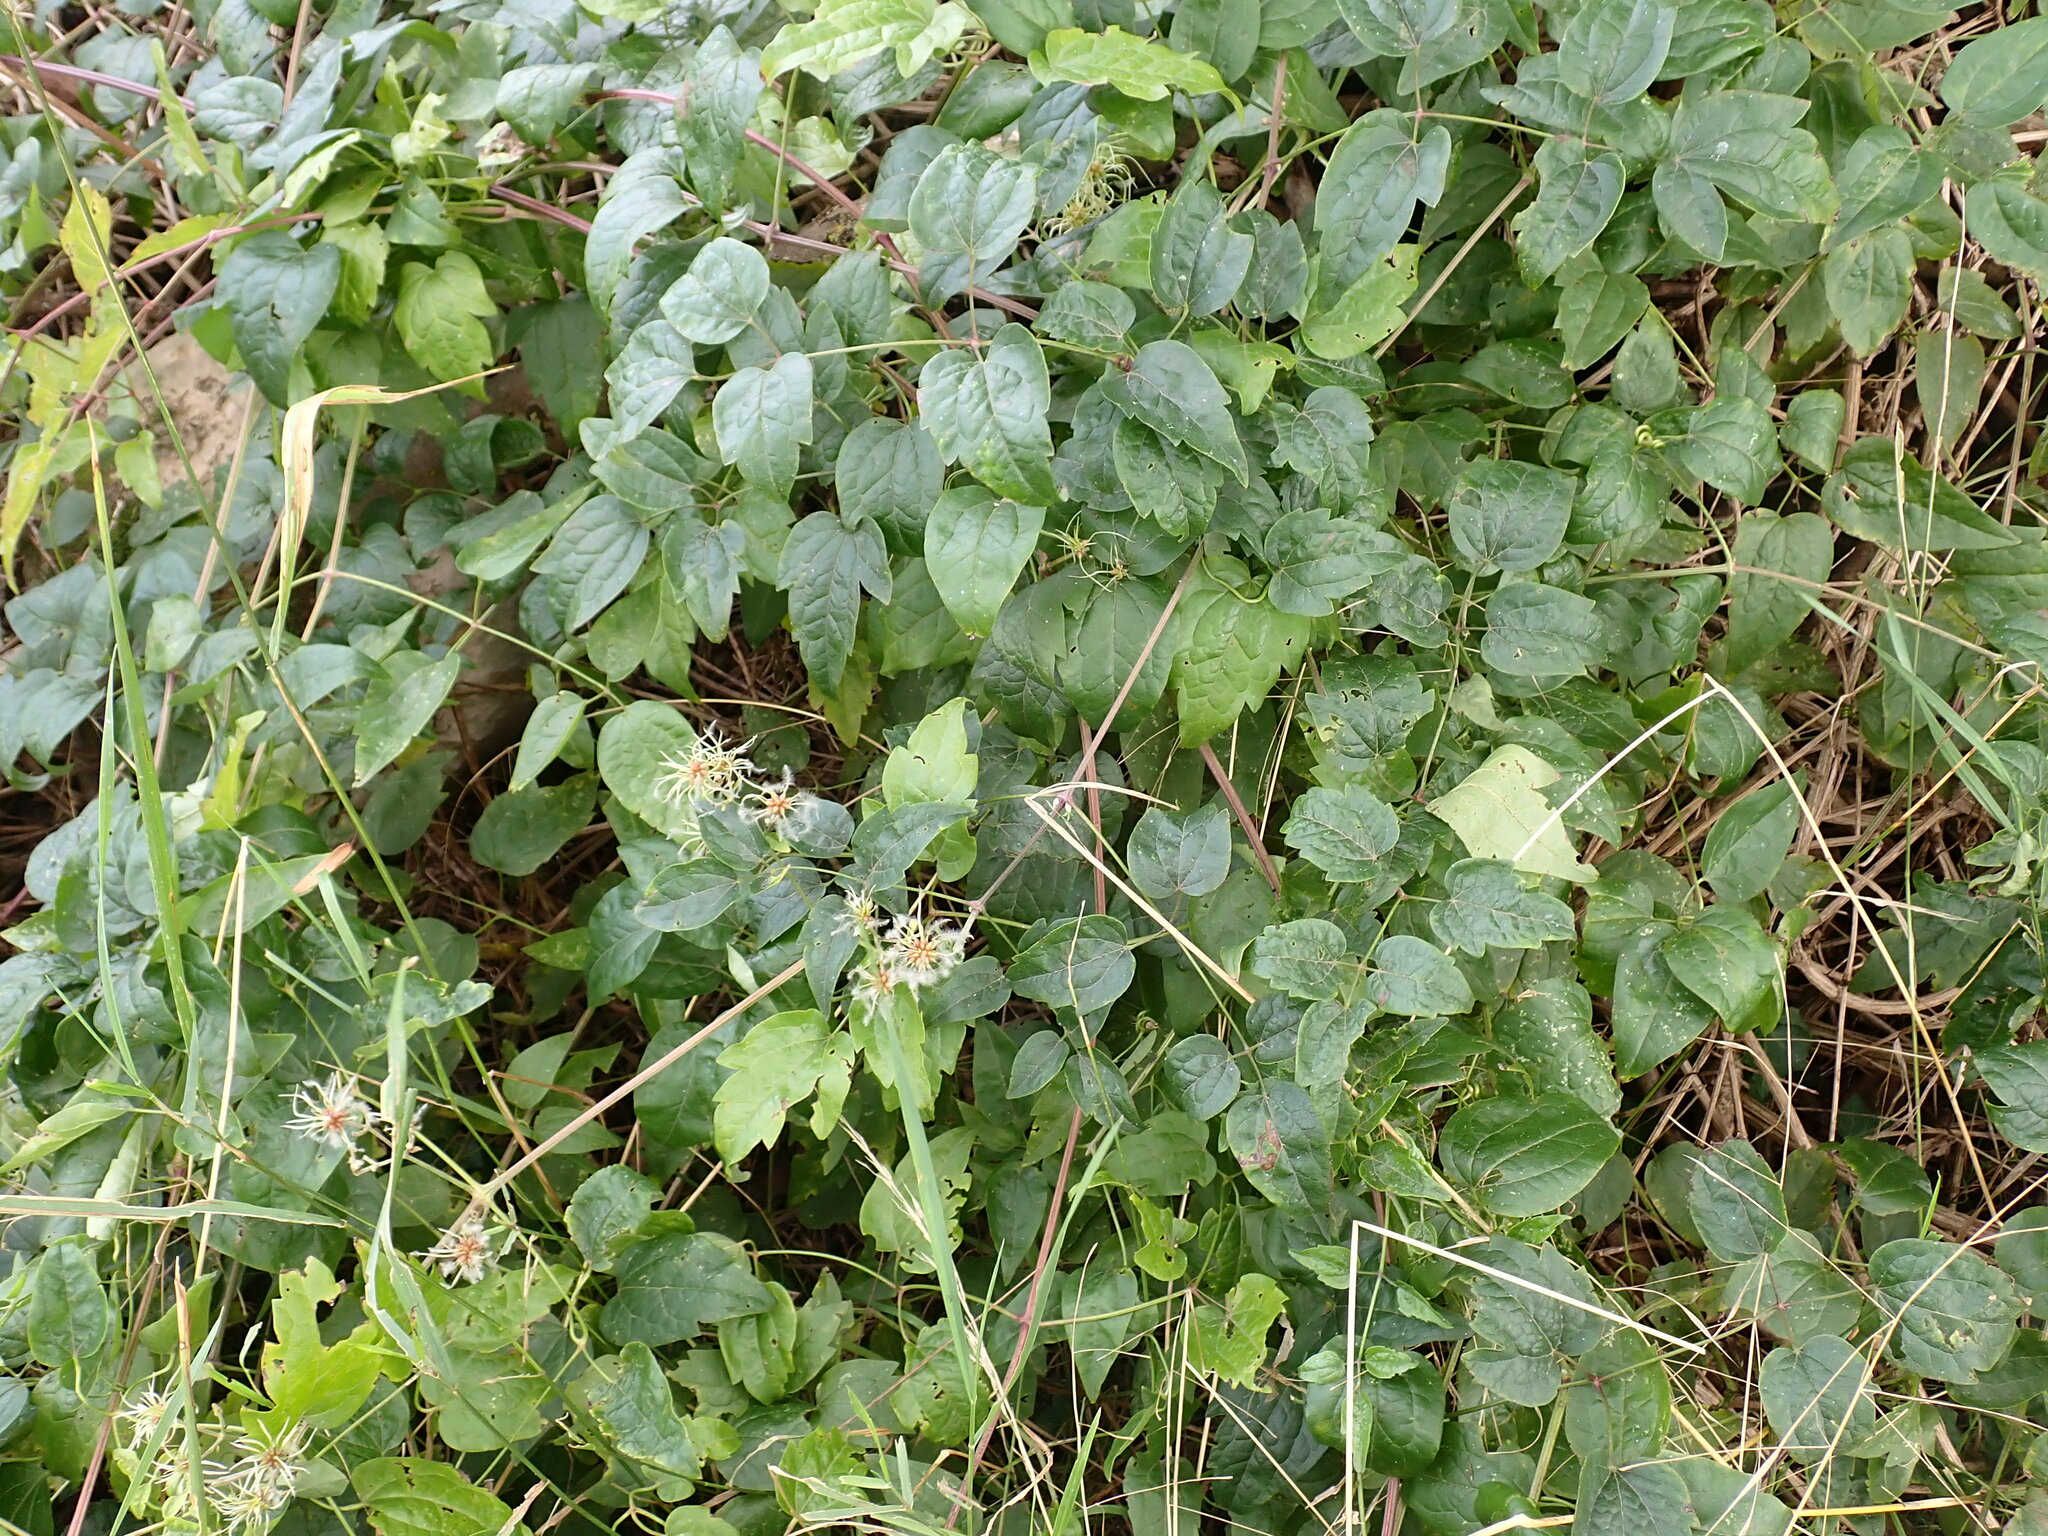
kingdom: Plantae
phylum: Tracheophyta
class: Magnoliopsida
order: Ranunculales
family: Ranunculaceae
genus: Clematis
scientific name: Clematis vitalba
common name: Evergreen clematis
